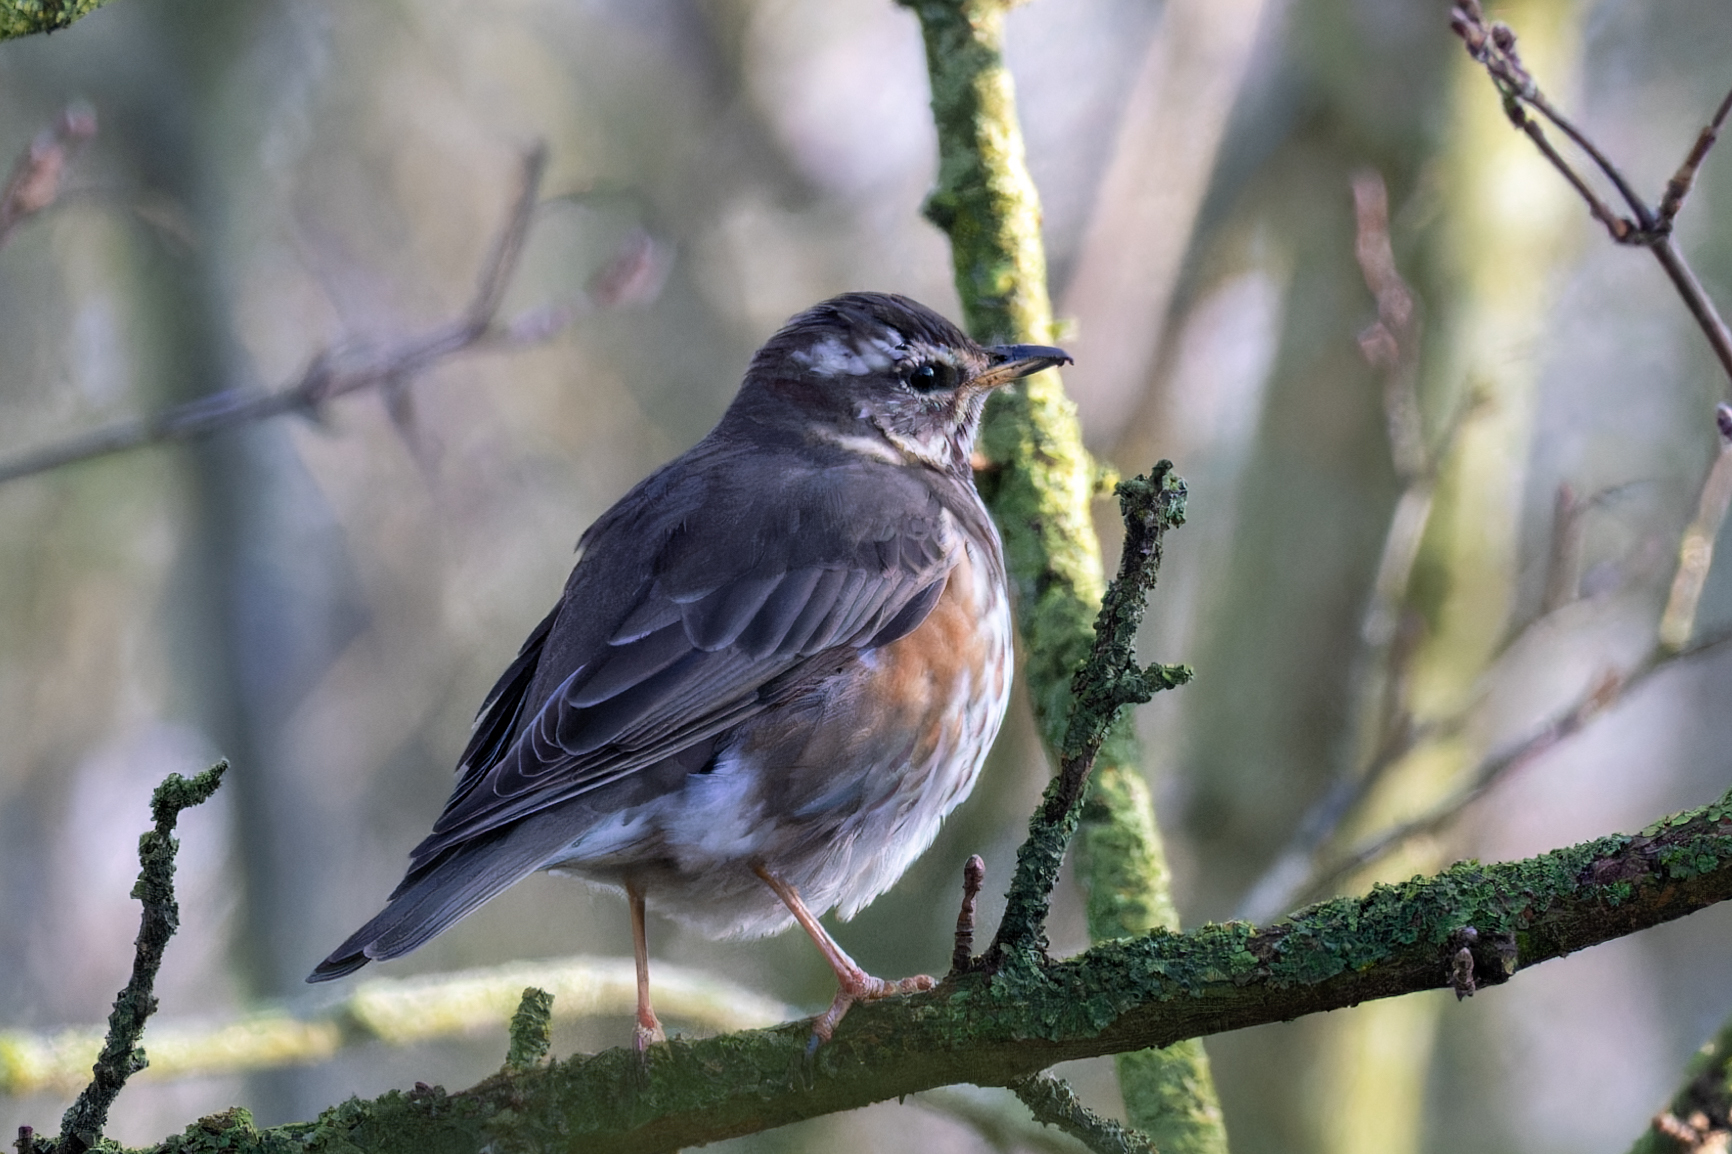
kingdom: Animalia
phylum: Chordata
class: Aves
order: Passeriformes
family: Turdidae
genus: Turdus
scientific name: Turdus iliacus
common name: Redwing
